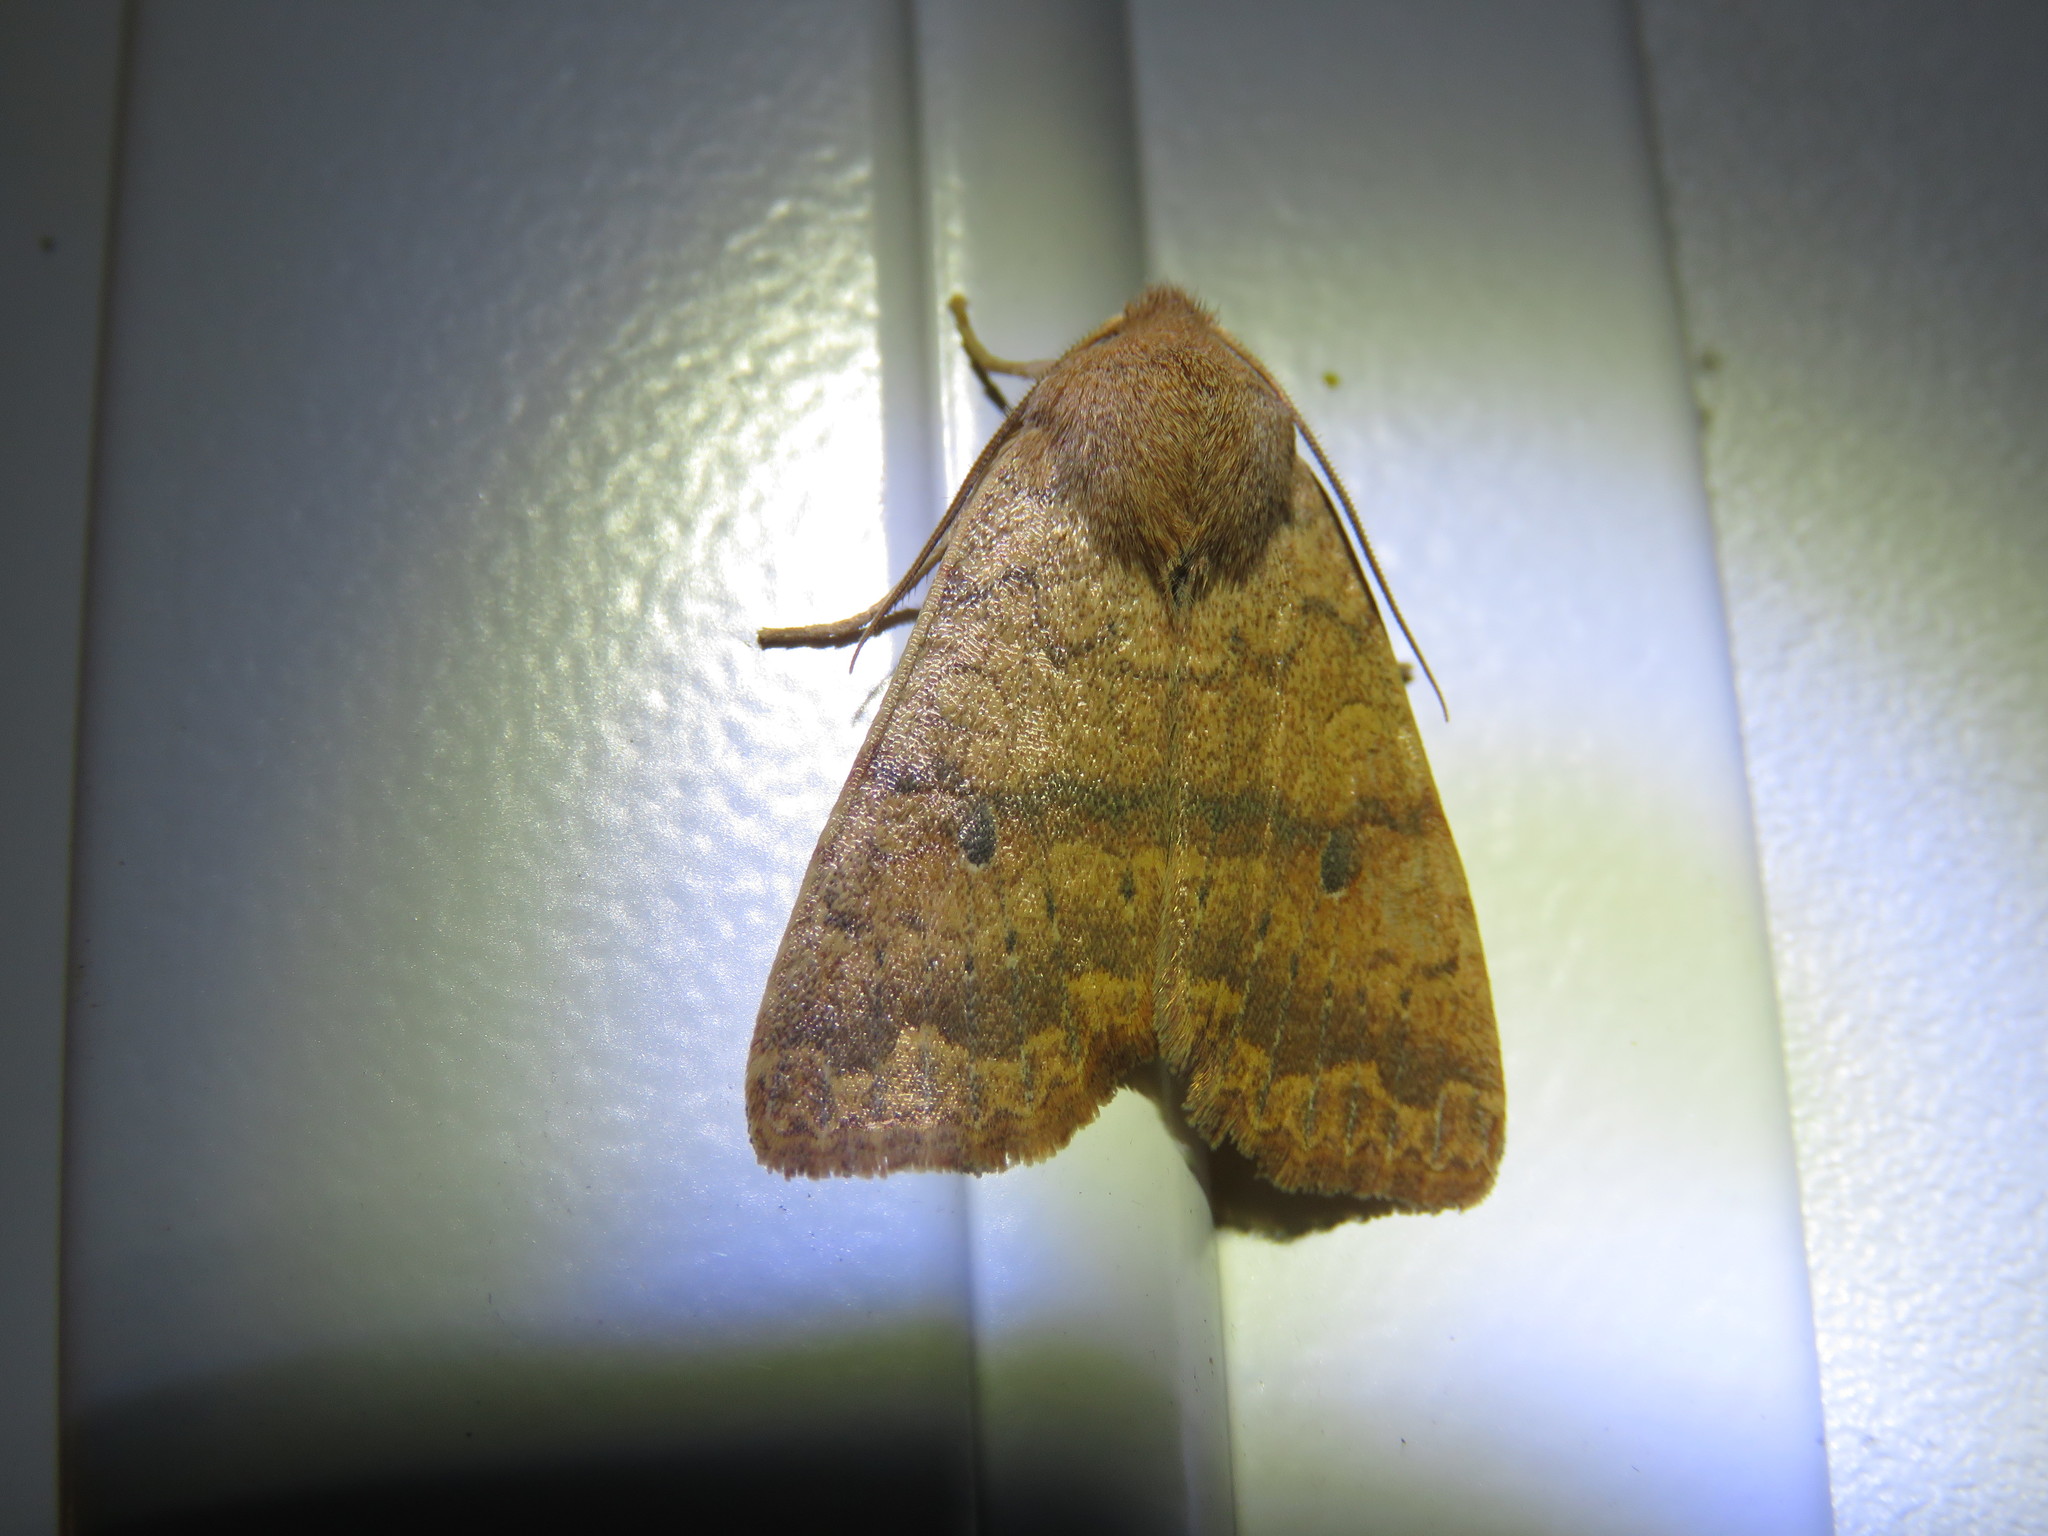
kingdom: Animalia
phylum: Arthropoda
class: Insecta
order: Lepidoptera
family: Noctuidae
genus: Agrochola
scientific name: Agrochola bicolorago
